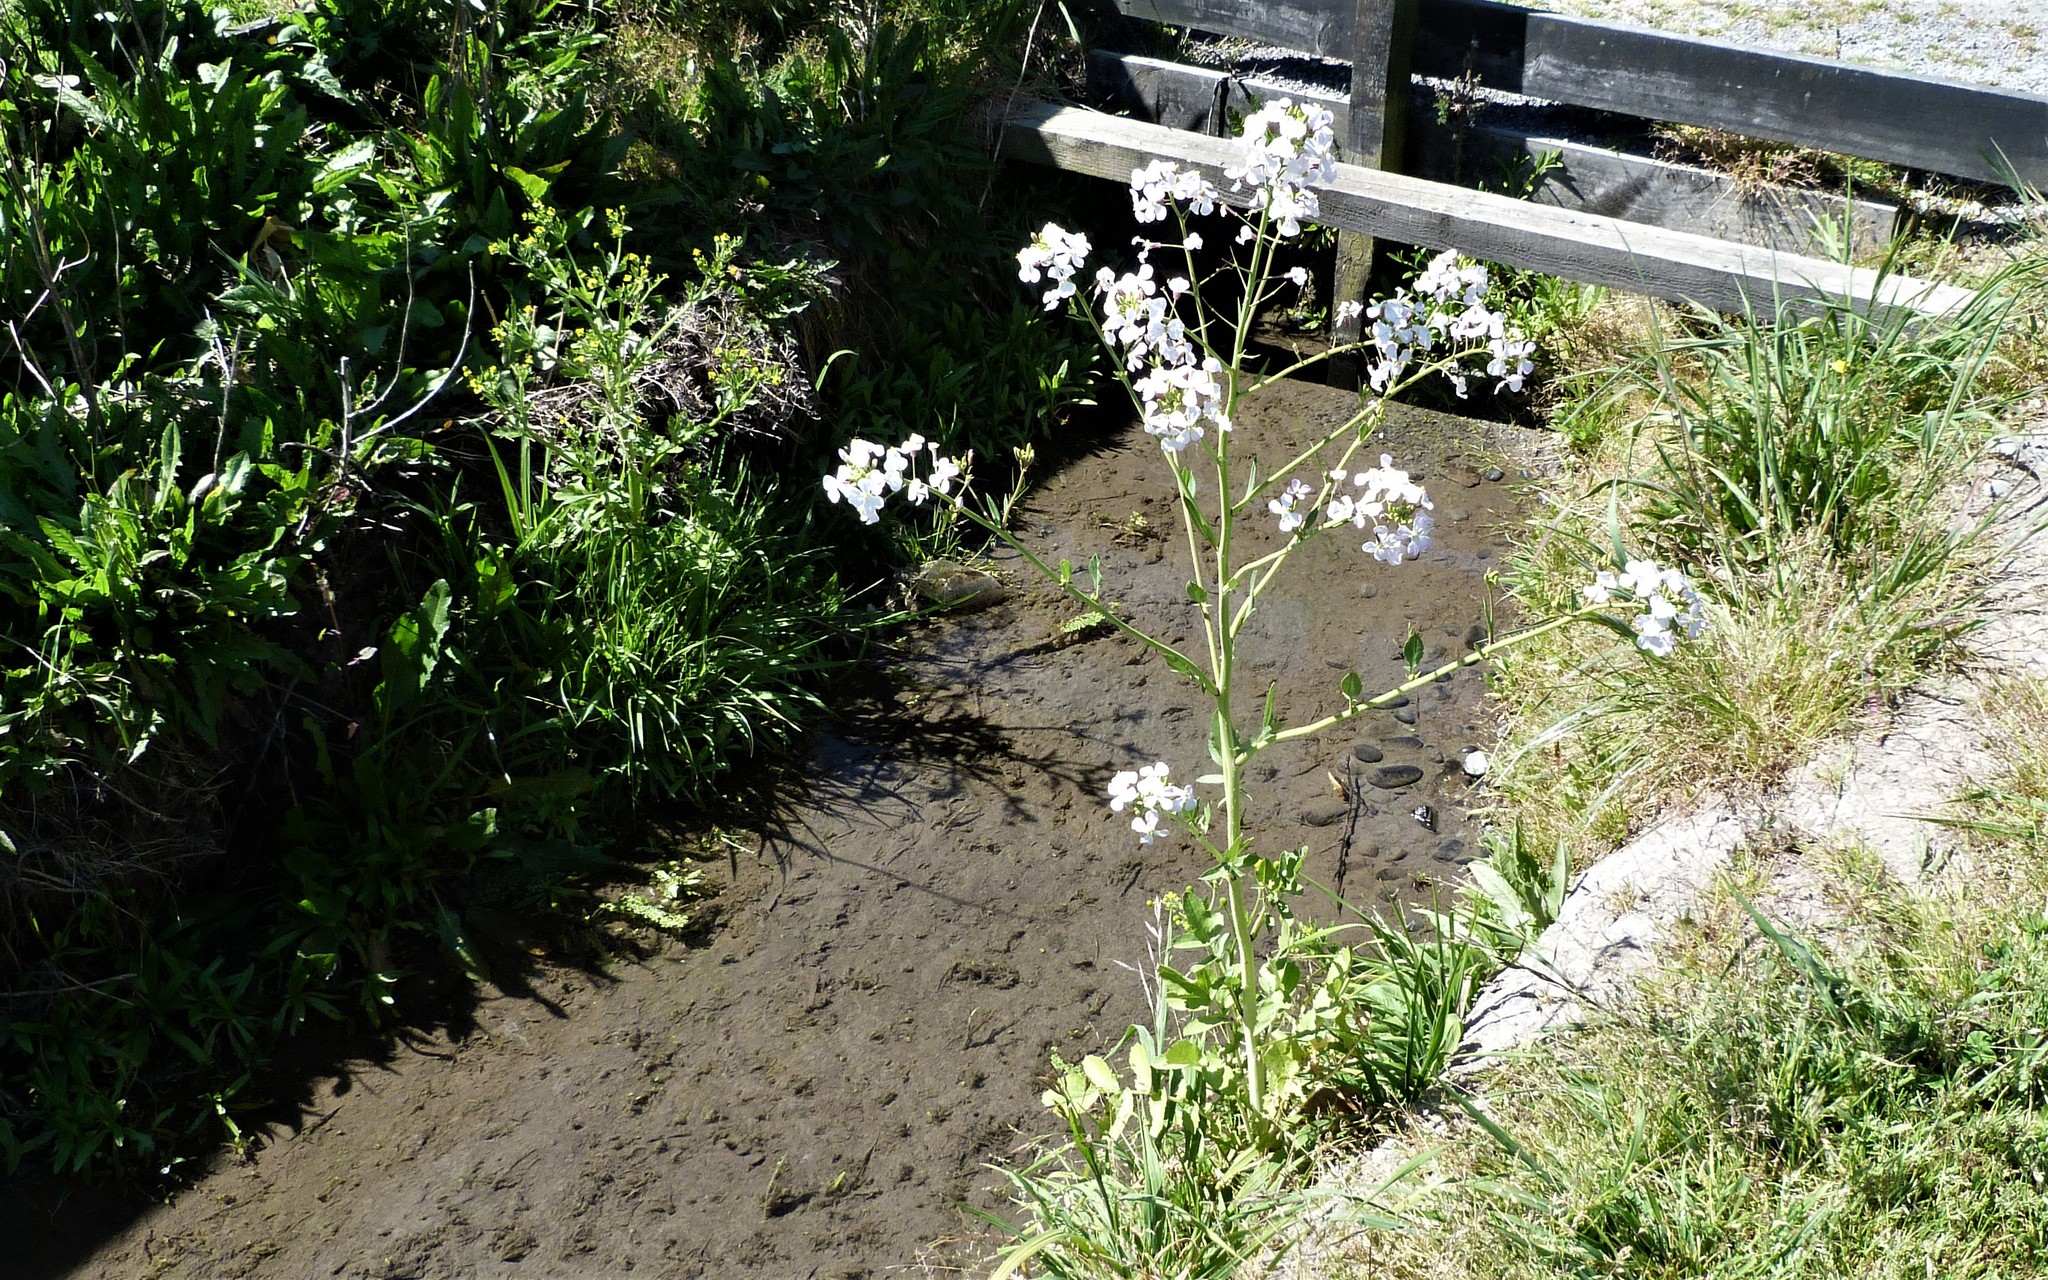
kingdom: Plantae
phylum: Tracheophyta
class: Magnoliopsida
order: Brassicales
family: Brassicaceae
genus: Raphanus
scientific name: Raphanus sativus
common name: Cultivated radish
